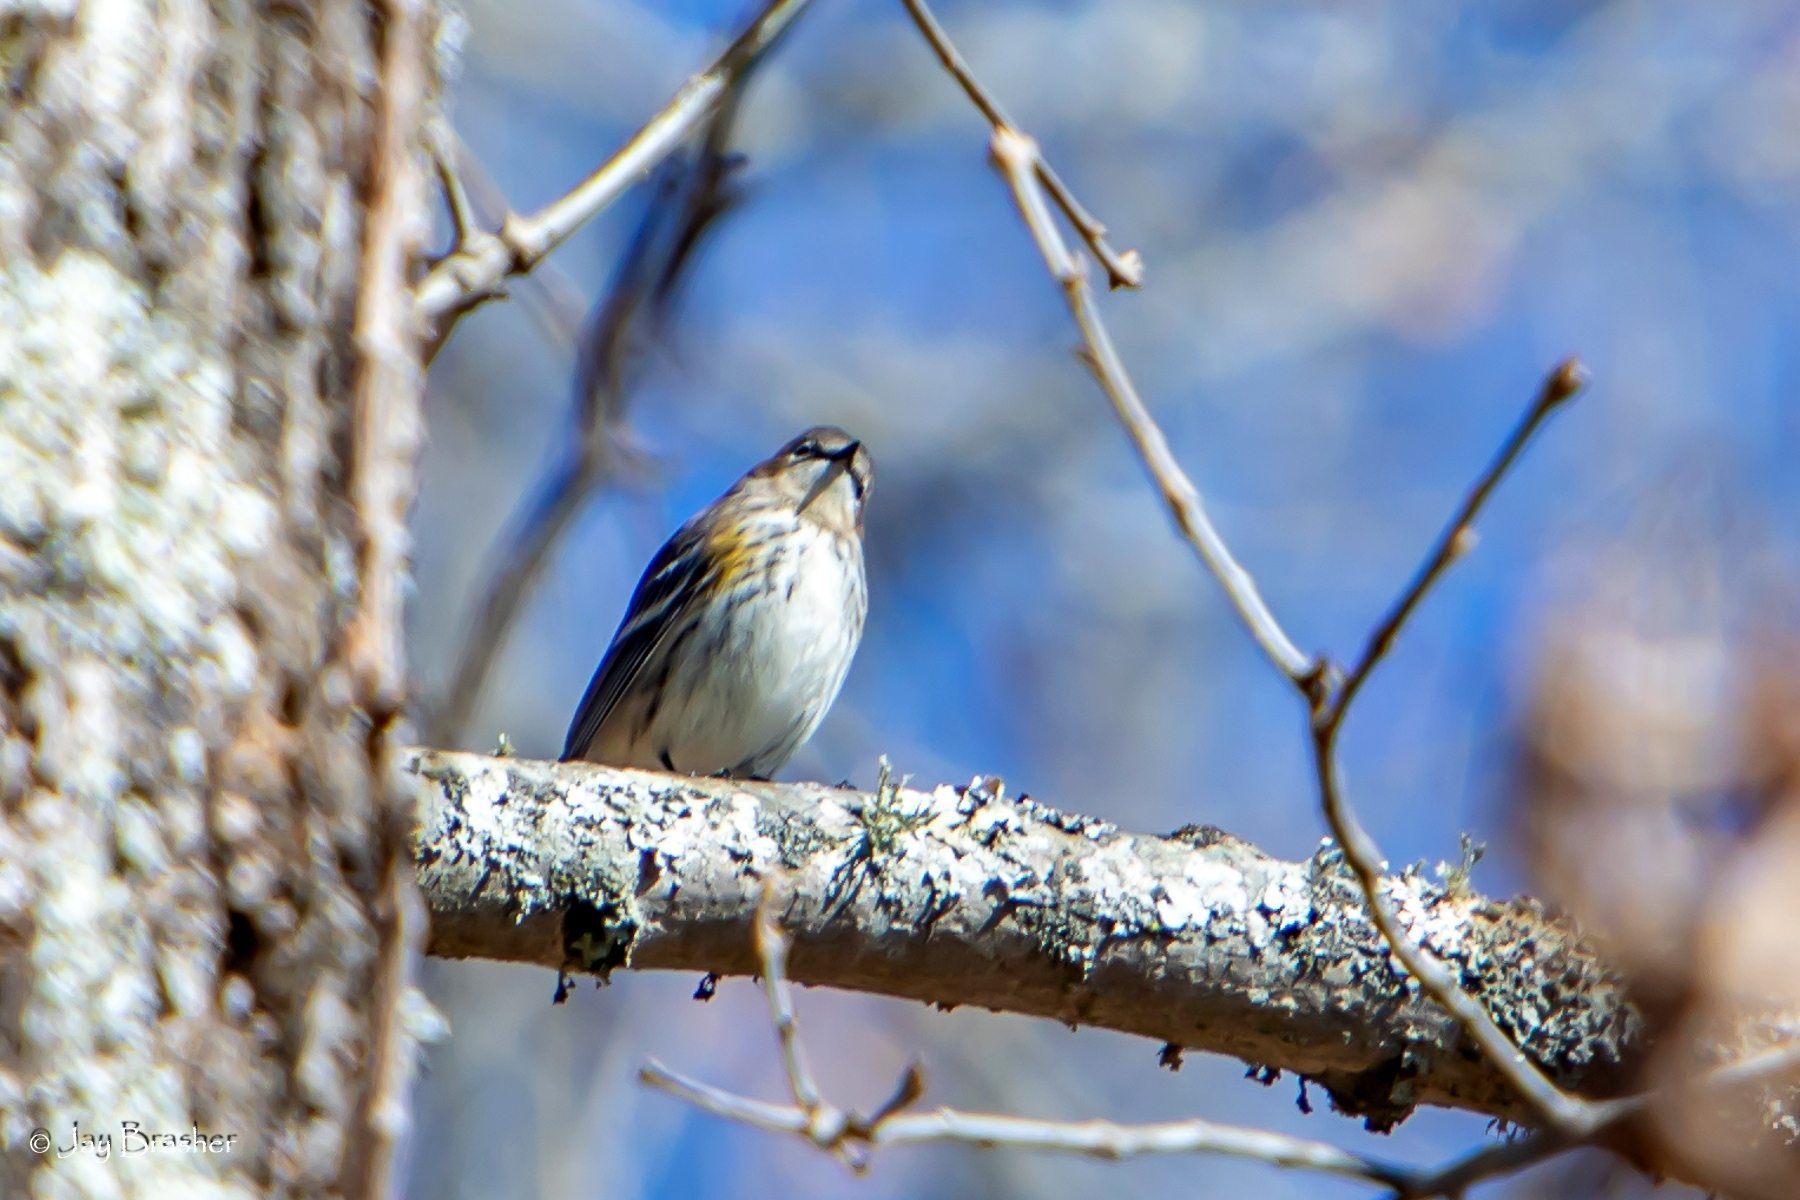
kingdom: Animalia
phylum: Chordata
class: Aves
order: Passeriformes
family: Parulidae
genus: Setophaga
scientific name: Setophaga coronata
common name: Myrtle warbler
